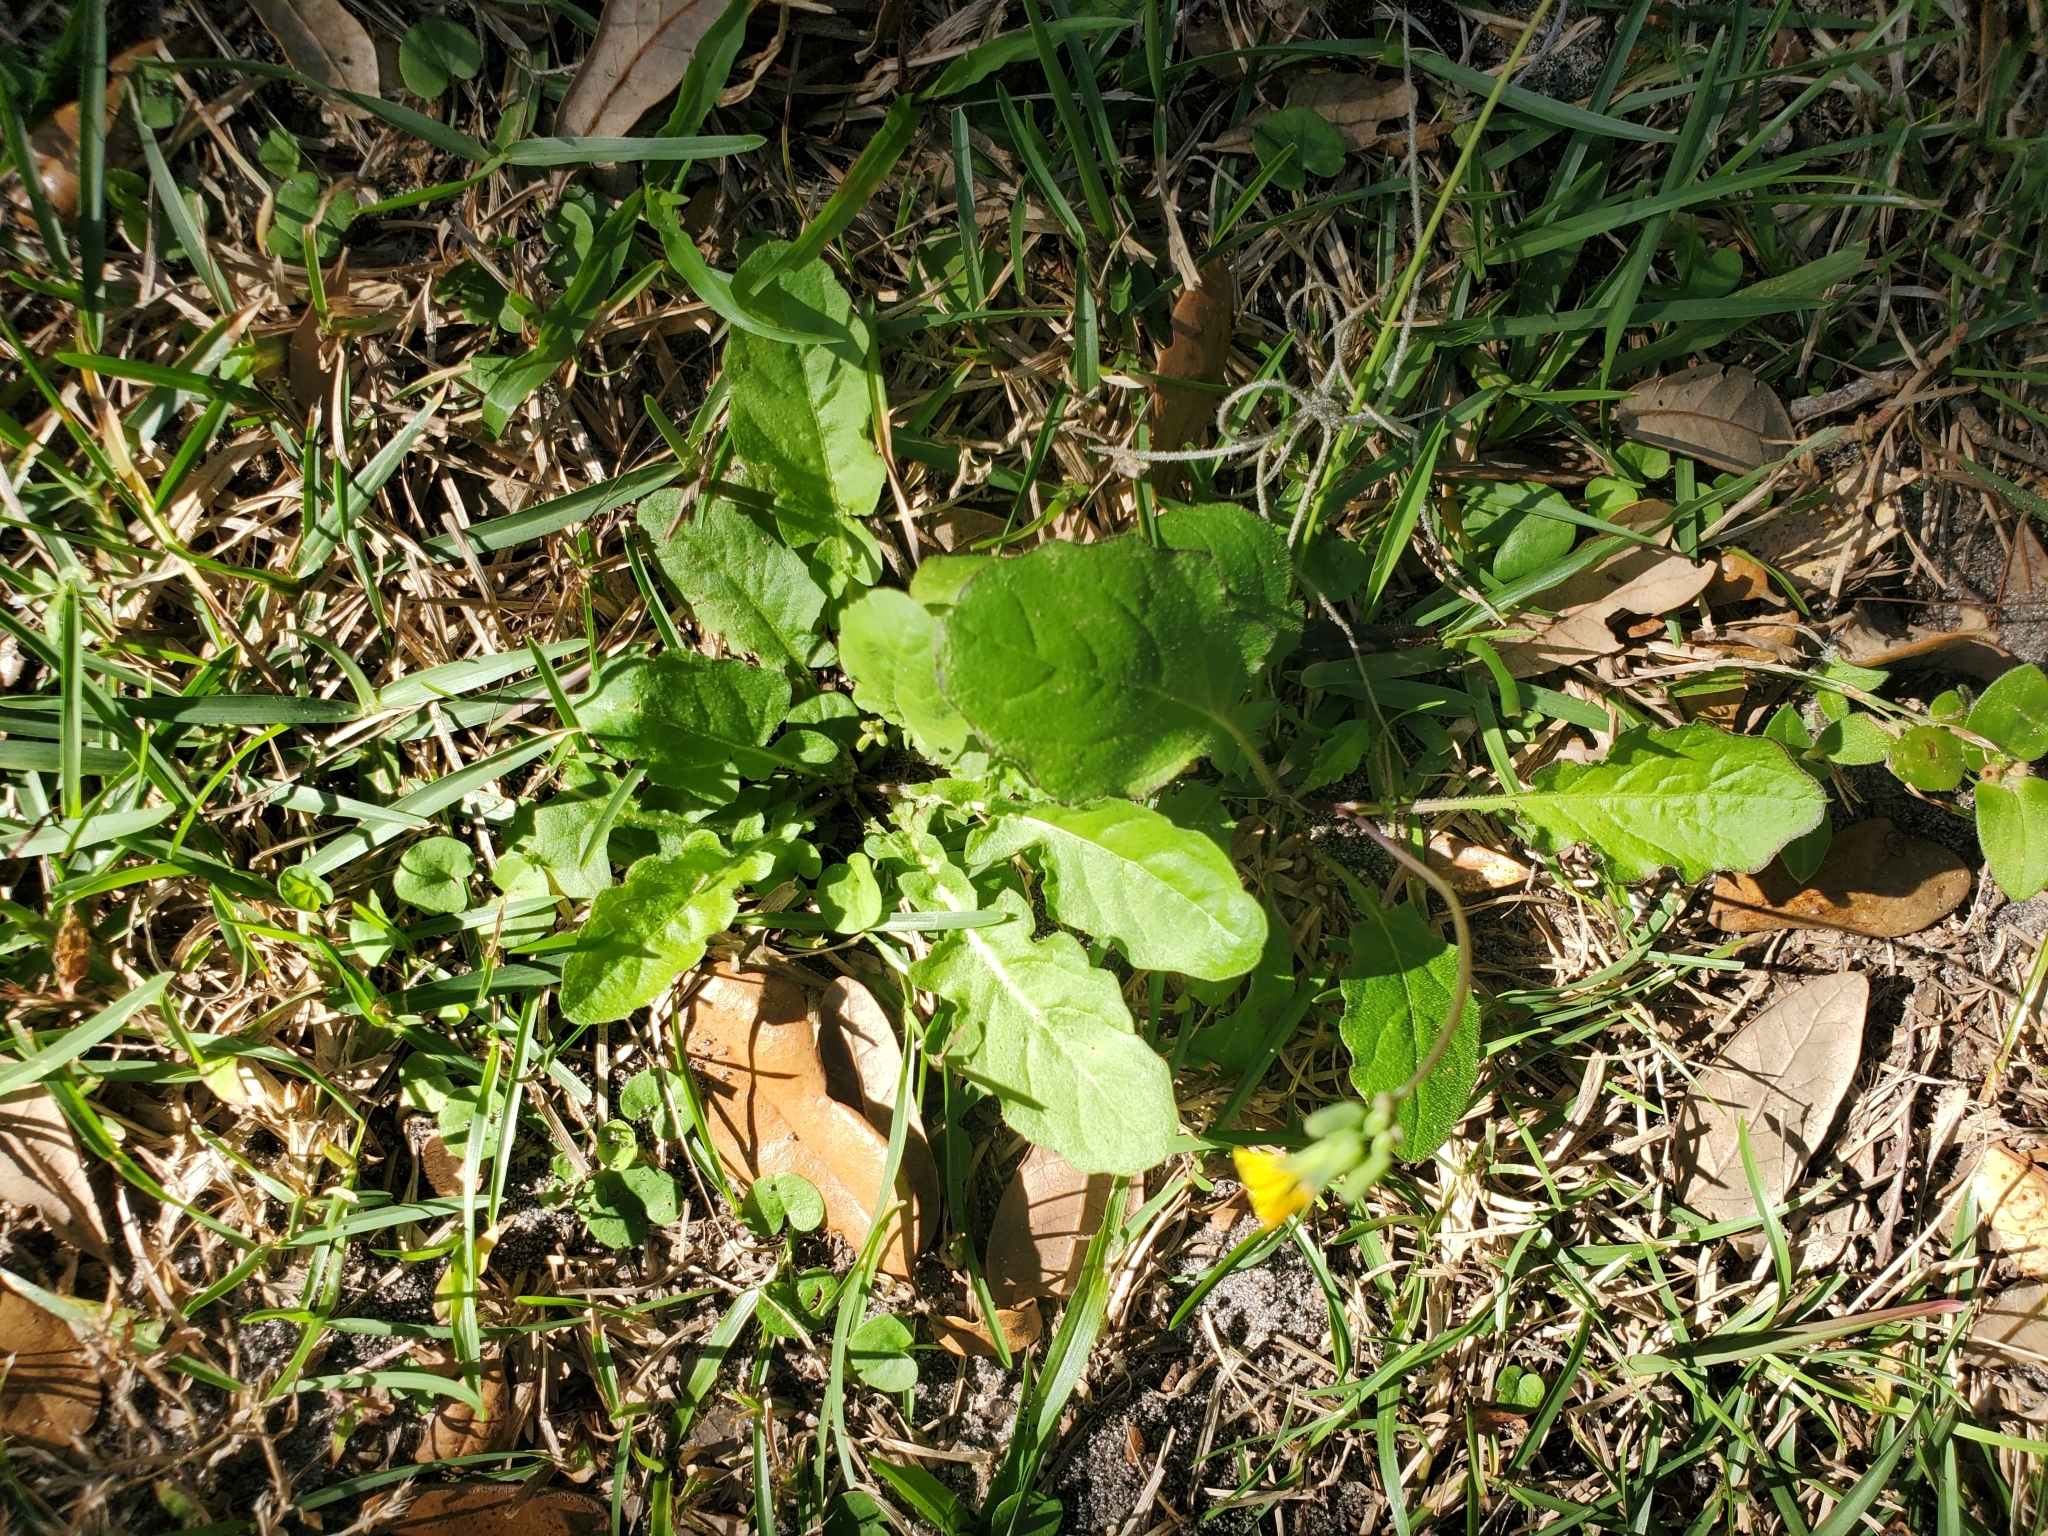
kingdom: Plantae
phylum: Tracheophyta
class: Magnoliopsida
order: Asterales
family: Asteraceae
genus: Youngia
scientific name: Youngia japonica
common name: Oriental false hawksbeard
